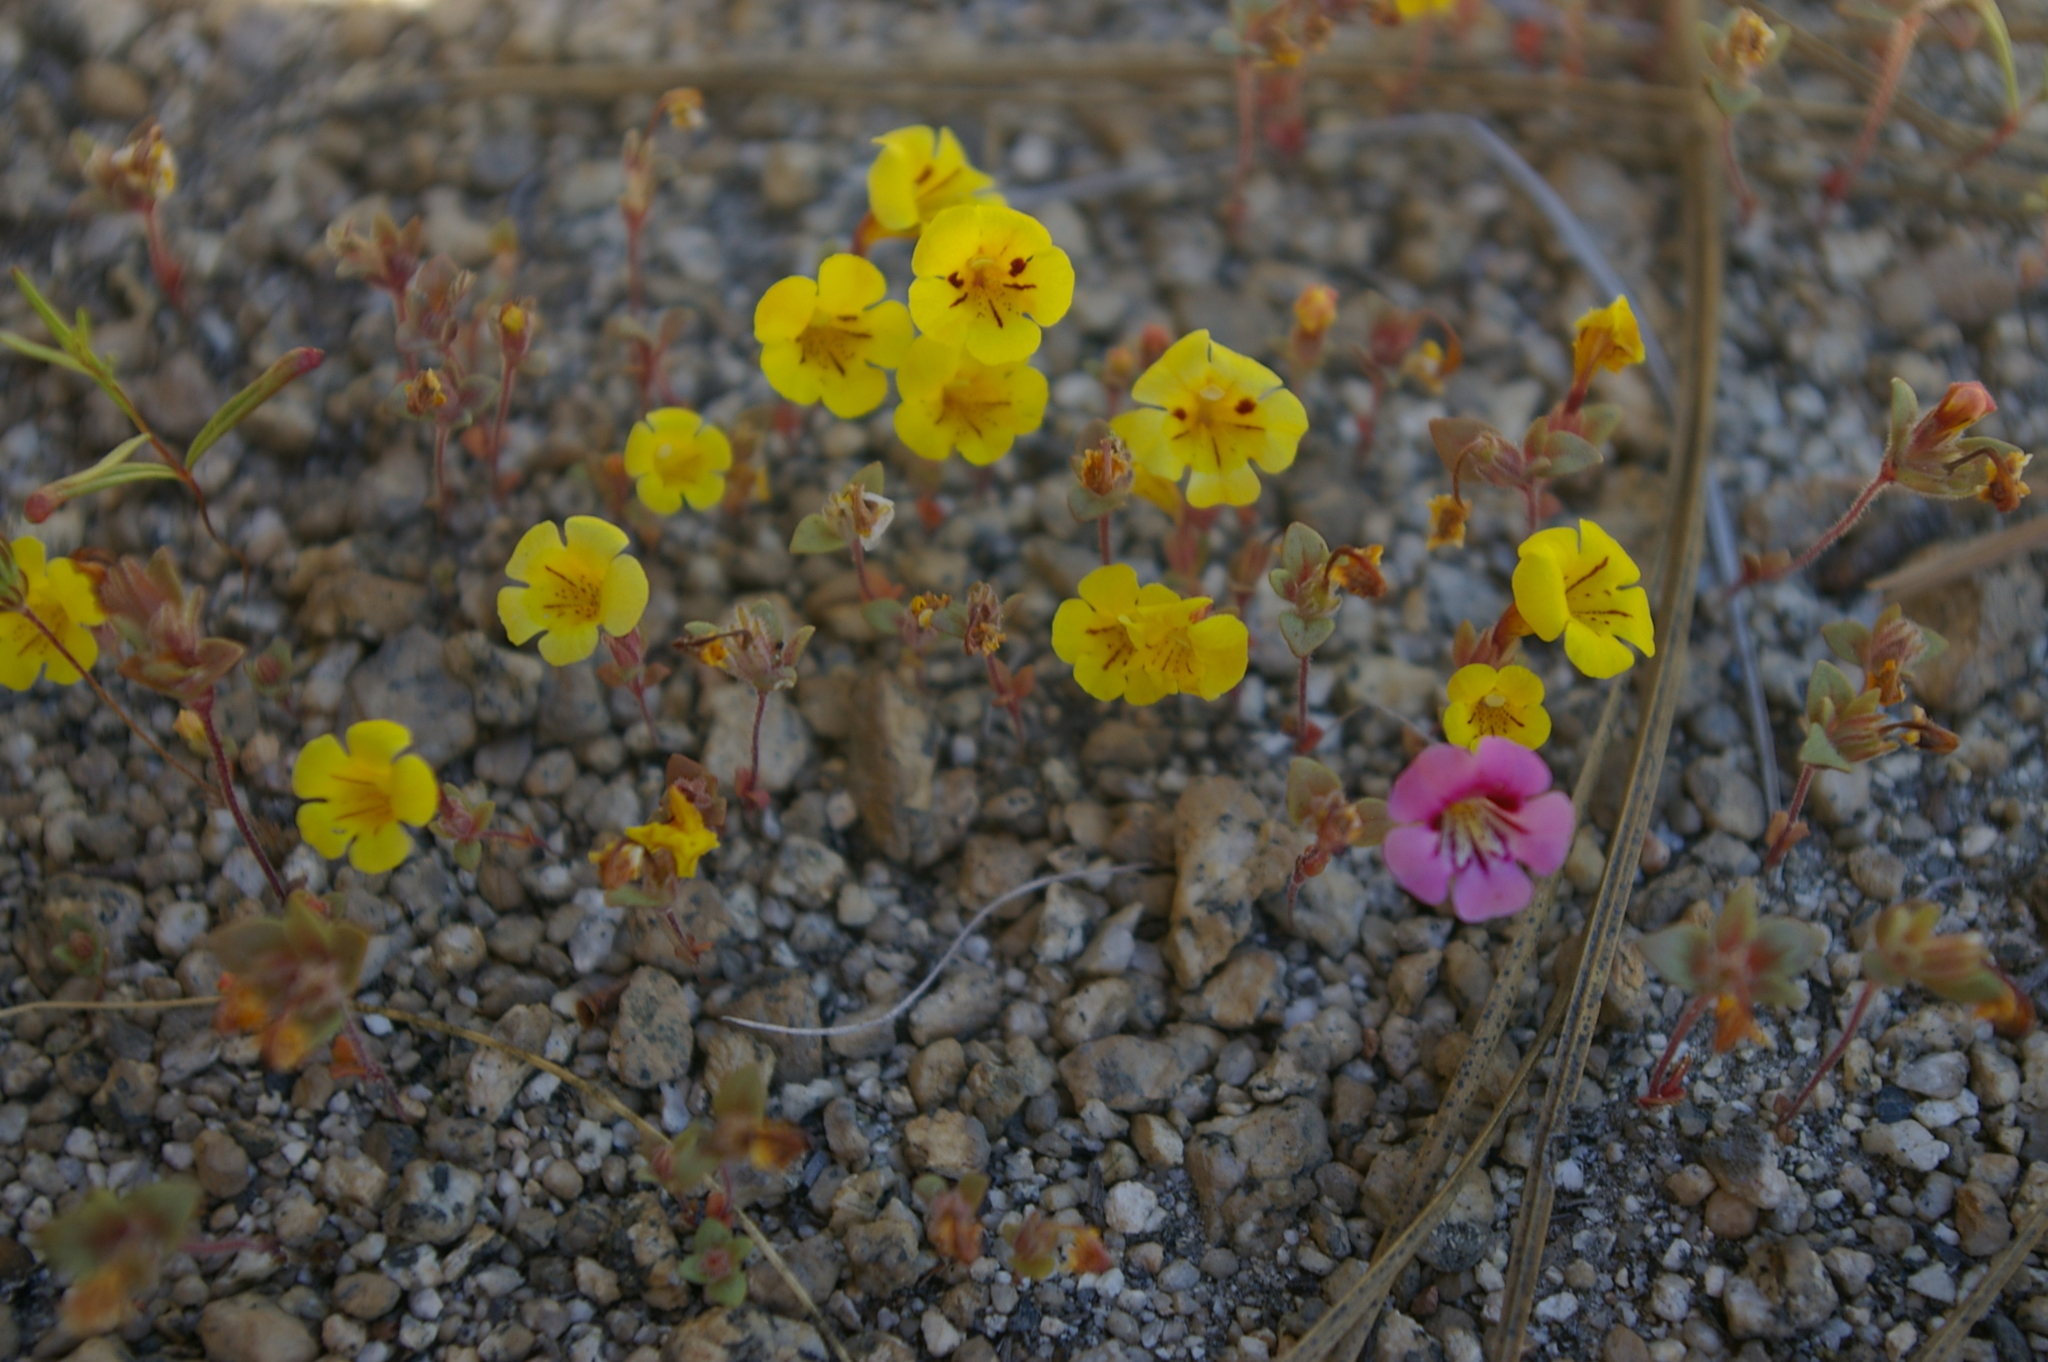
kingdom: Plantae
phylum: Tracheophyta
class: Magnoliopsida
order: Lamiales
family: Phrymaceae
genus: Diplacus
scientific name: Diplacus bicolor
